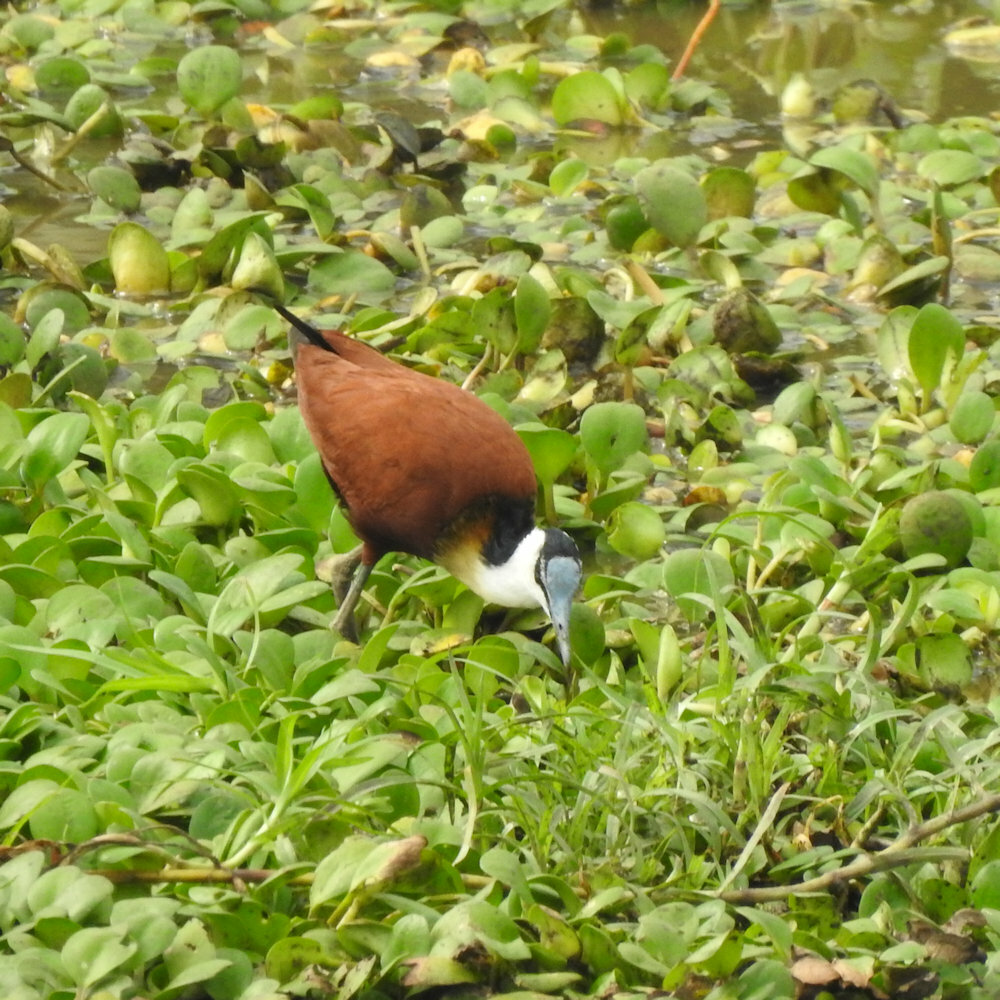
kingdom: Animalia
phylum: Chordata
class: Aves
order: Charadriiformes
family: Jacanidae
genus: Actophilornis
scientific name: Actophilornis africanus
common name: African jacana
